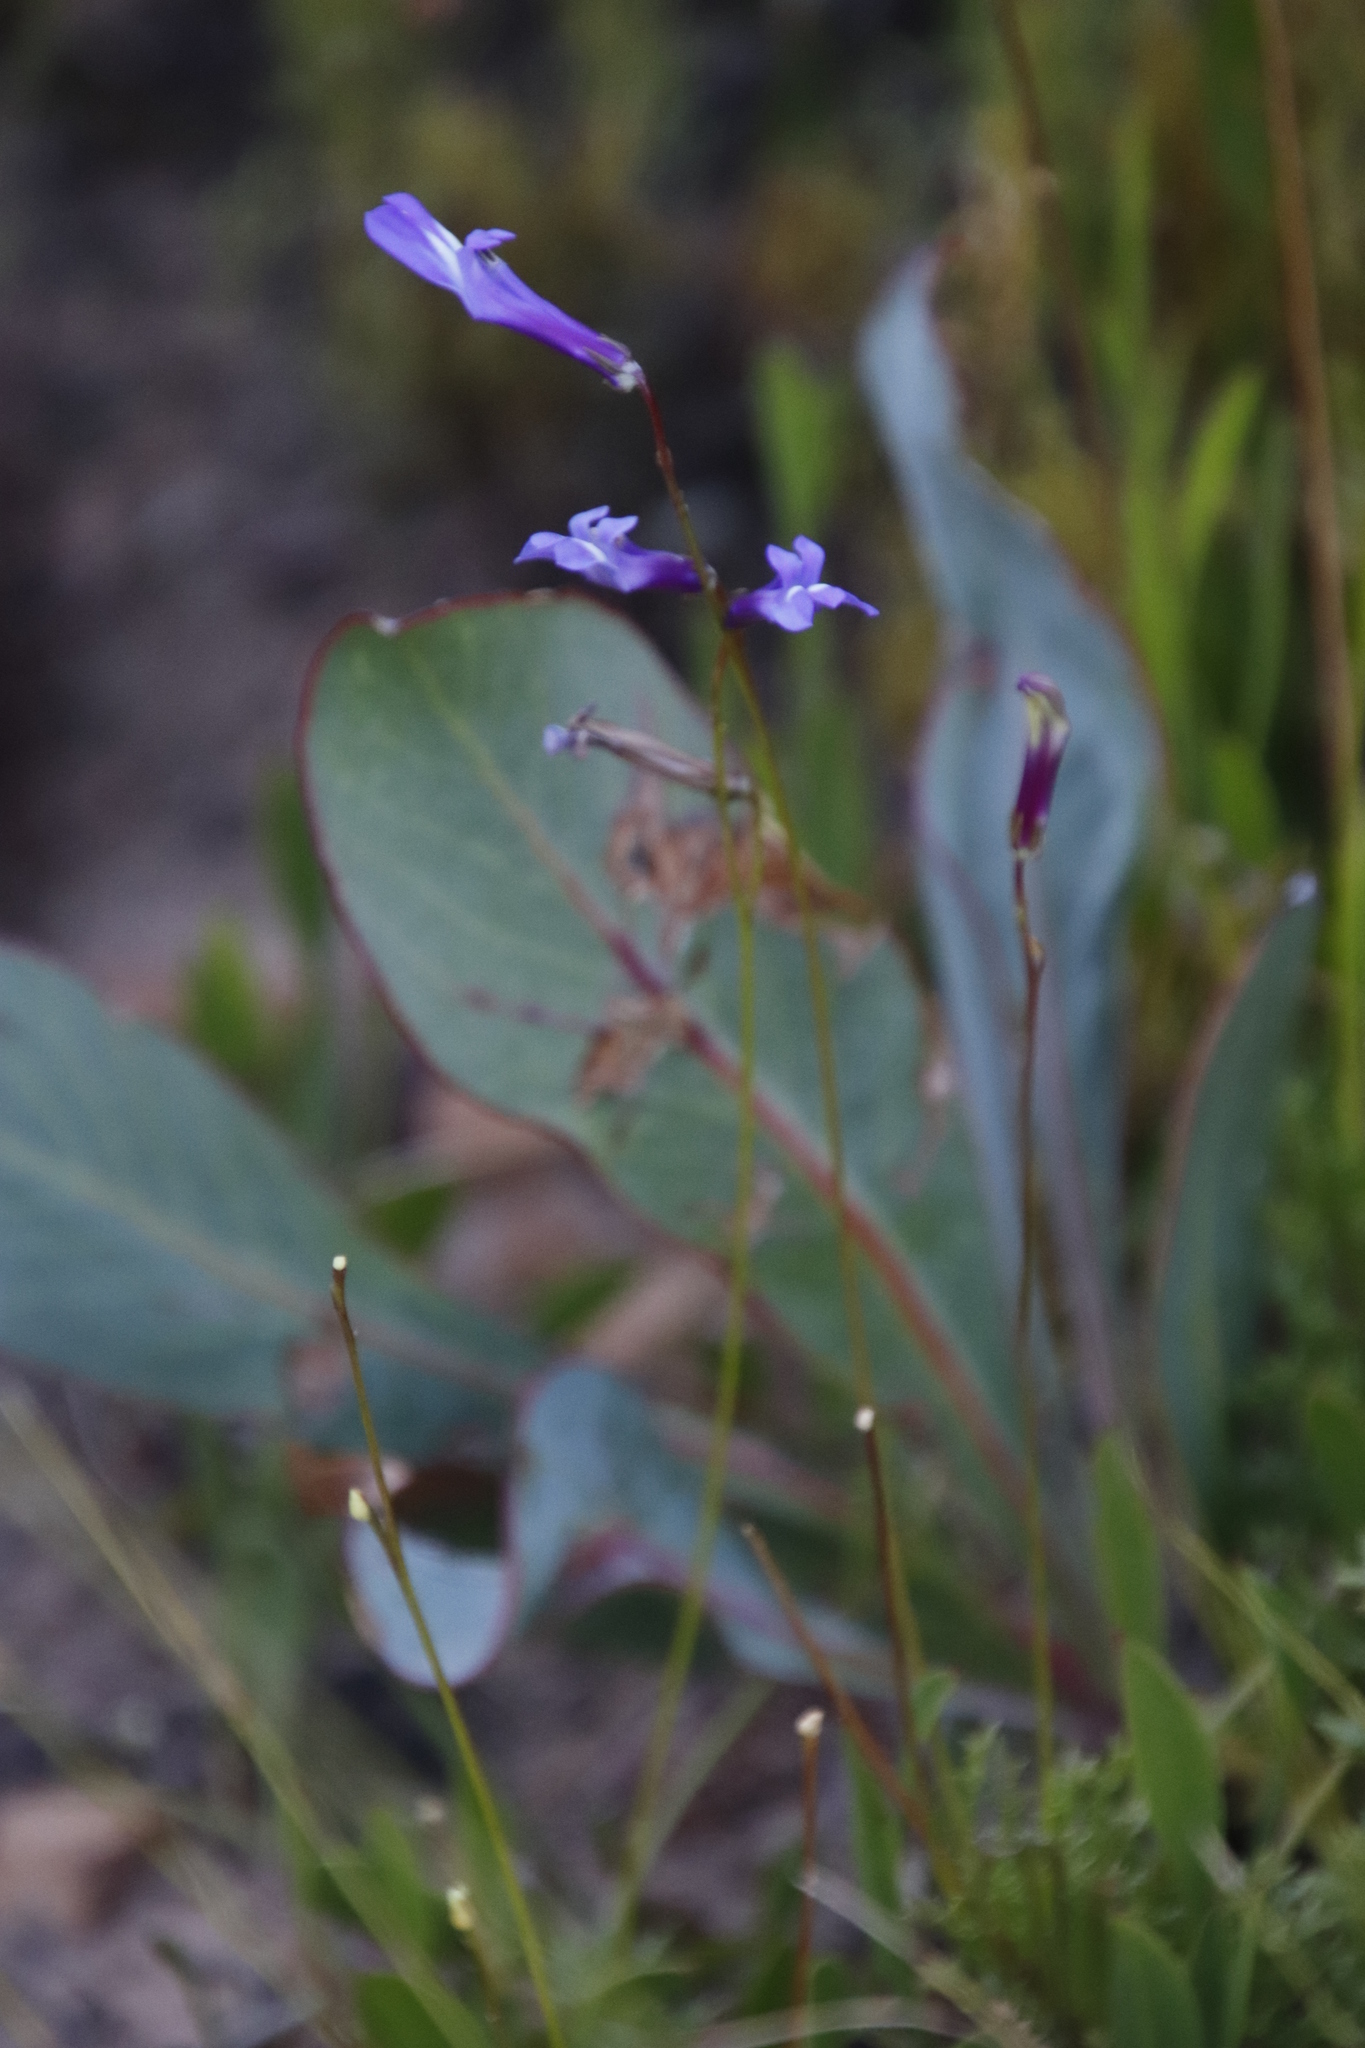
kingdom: Plantae
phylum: Tracheophyta
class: Magnoliopsida
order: Asterales
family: Campanulaceae
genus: Lobelia
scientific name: Lobelia coronopifolia
